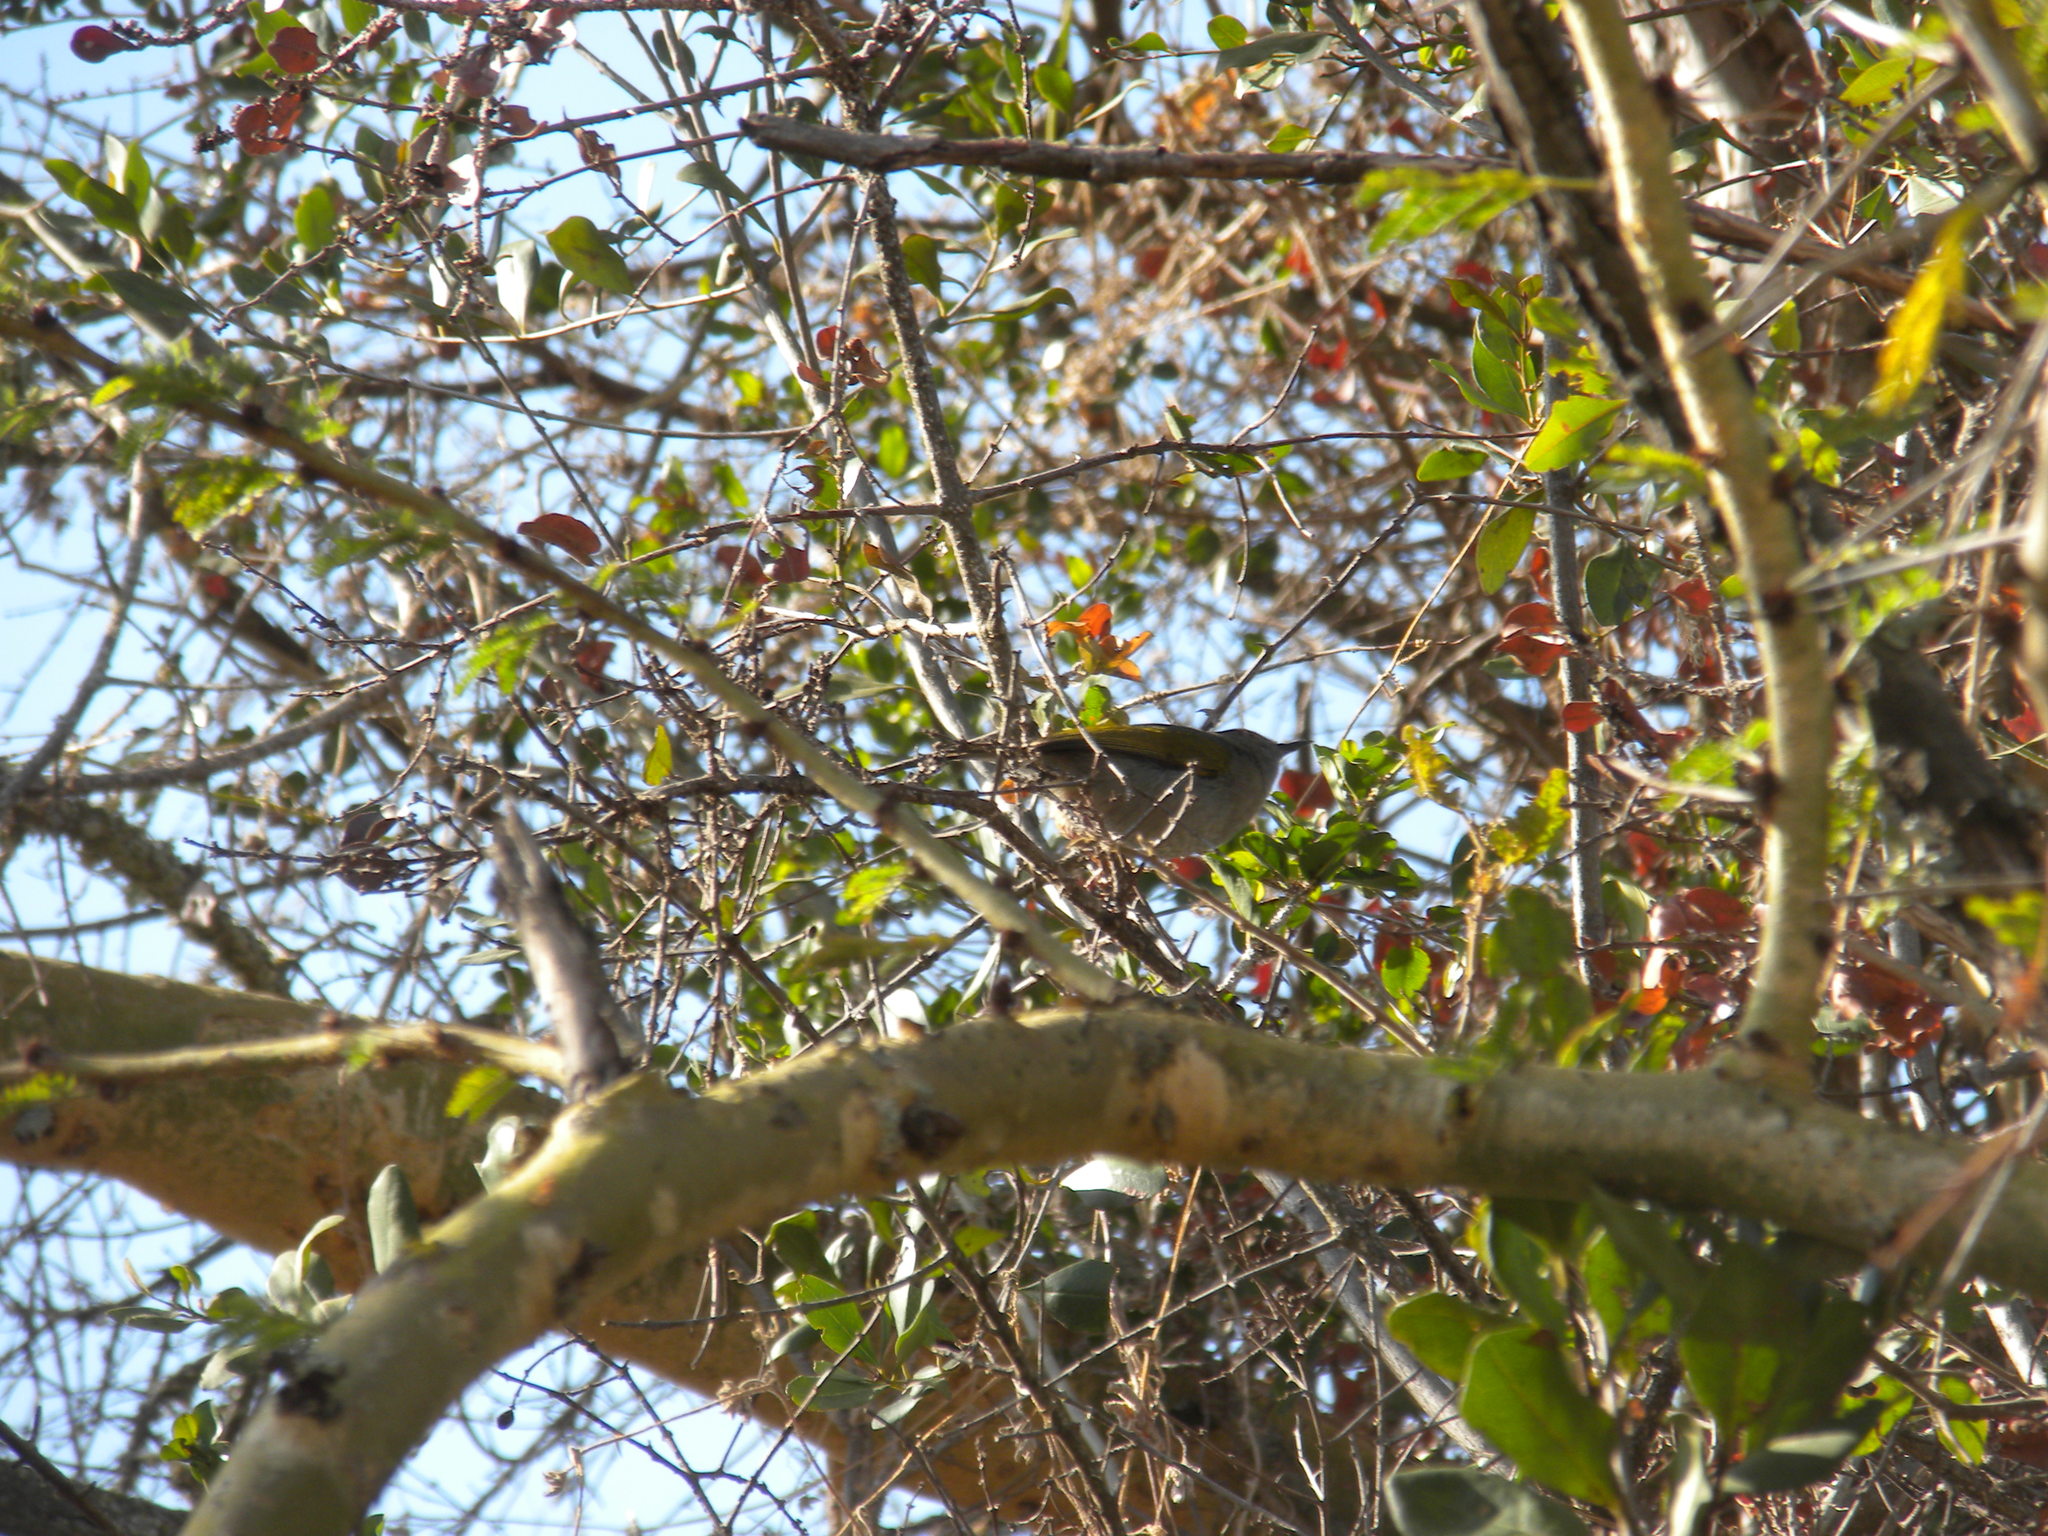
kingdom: Animalia
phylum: Chordata
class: Aves
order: Passeriformes
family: Cisticolidae
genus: Camaroptera
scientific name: Camaroptera brachyura
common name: Green-backed camaroptera
